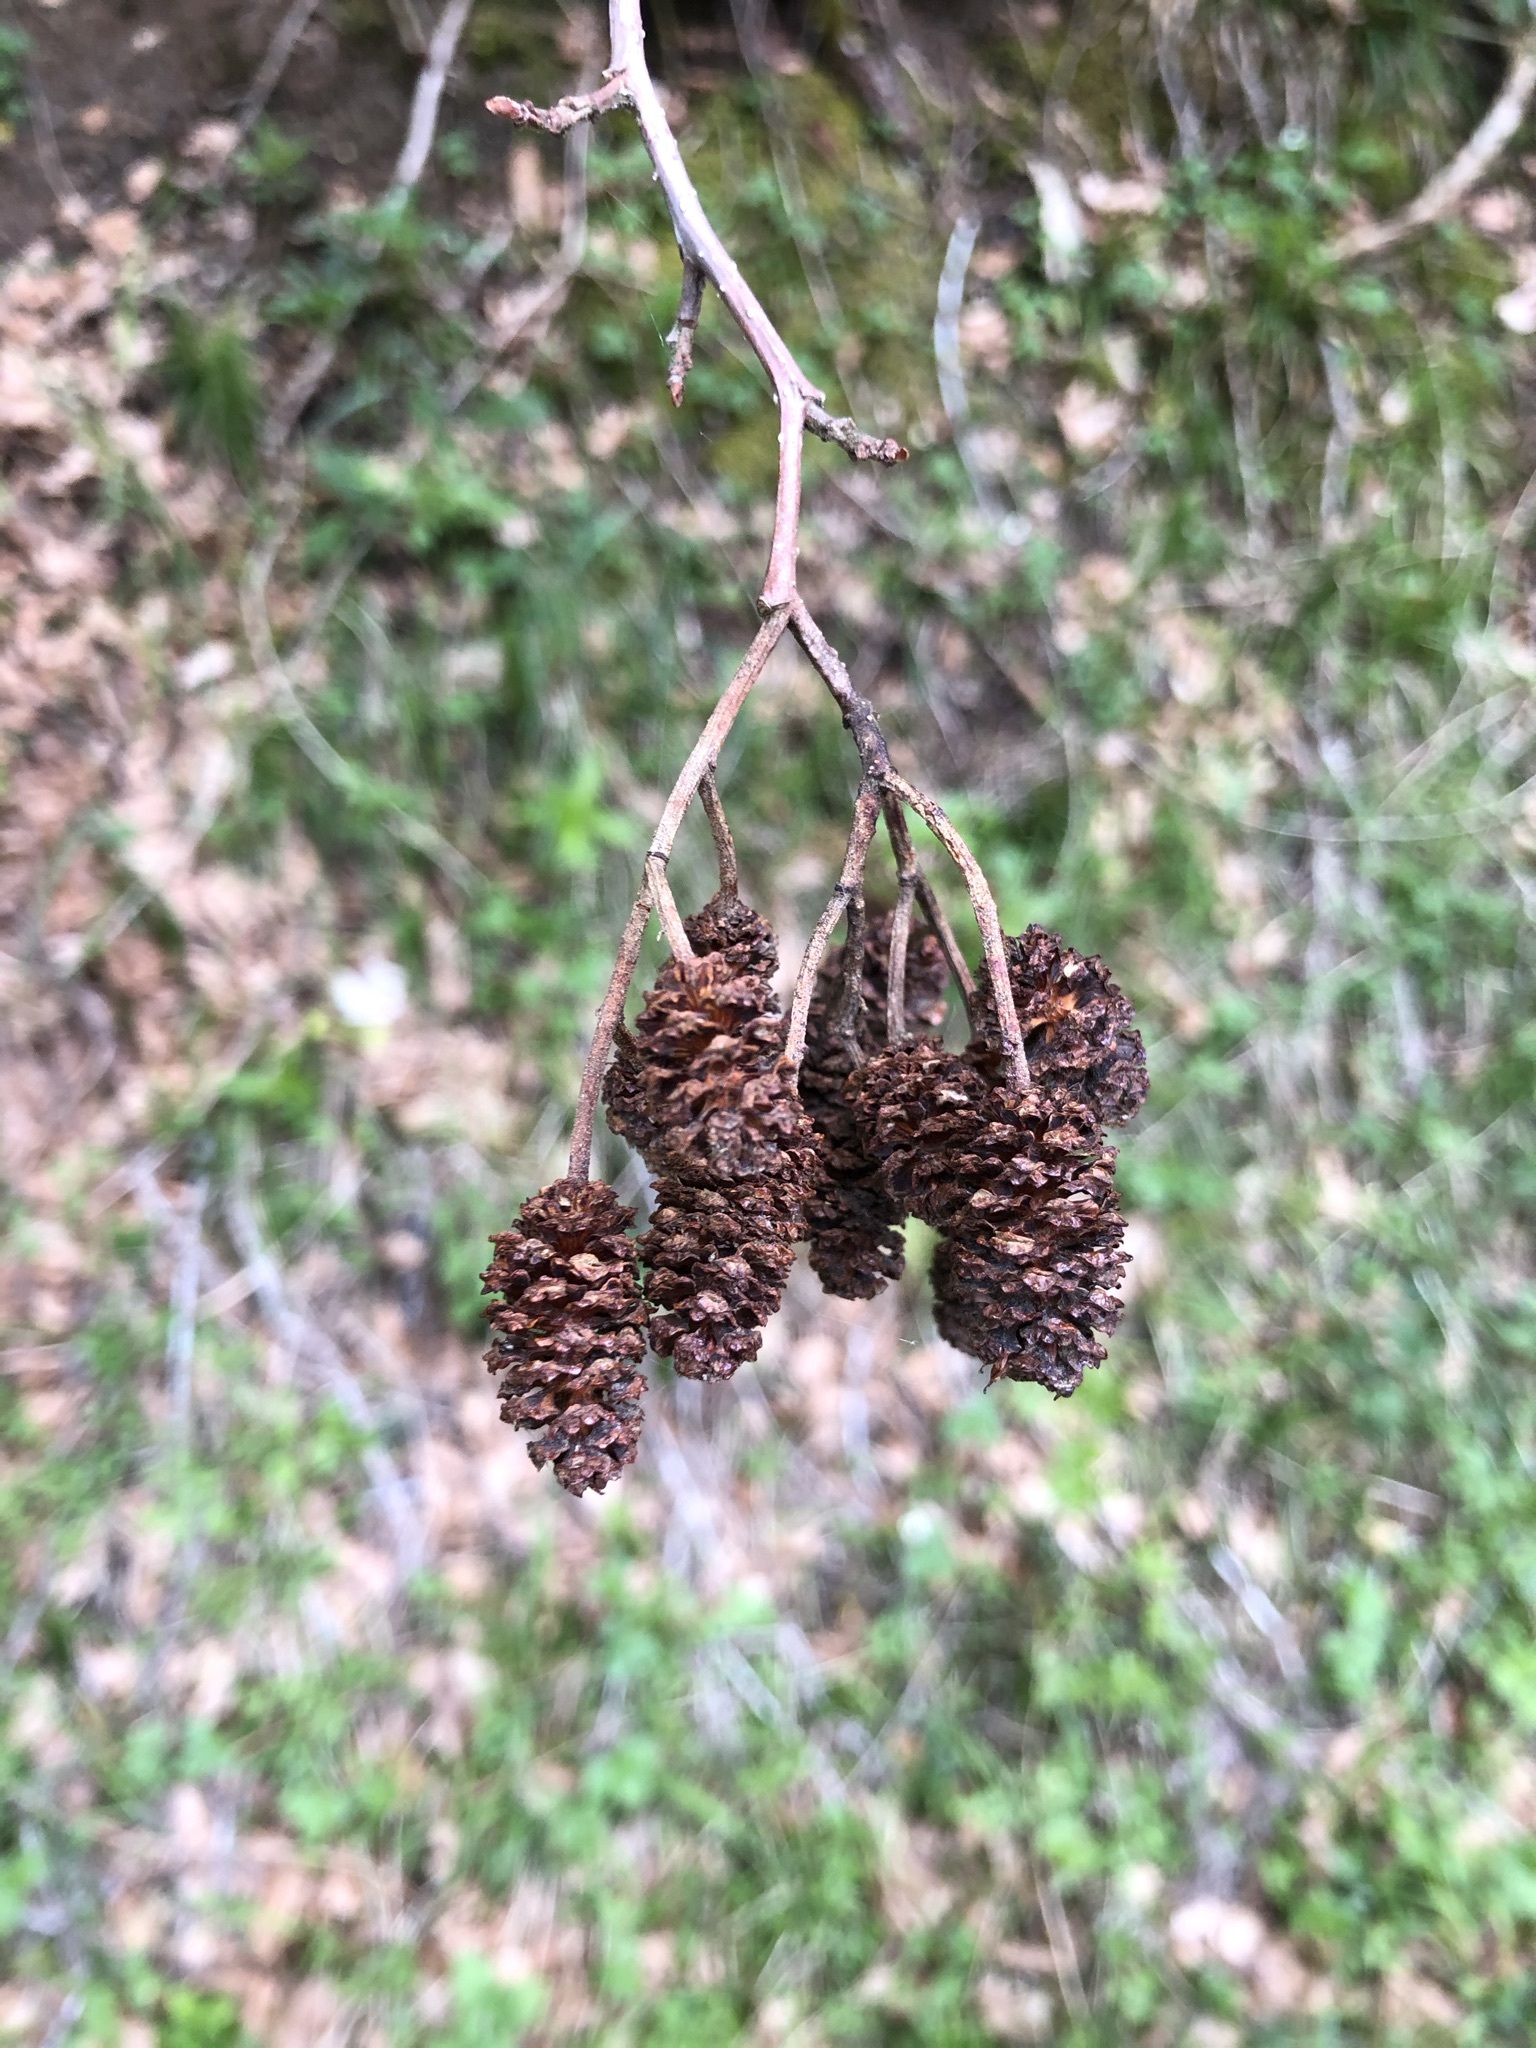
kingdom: Plantae
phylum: Tracheophyta
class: Magnoliopsida
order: Fagales
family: Betulaceae
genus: Alnus
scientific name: Alnus glutinosa
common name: Black alder
